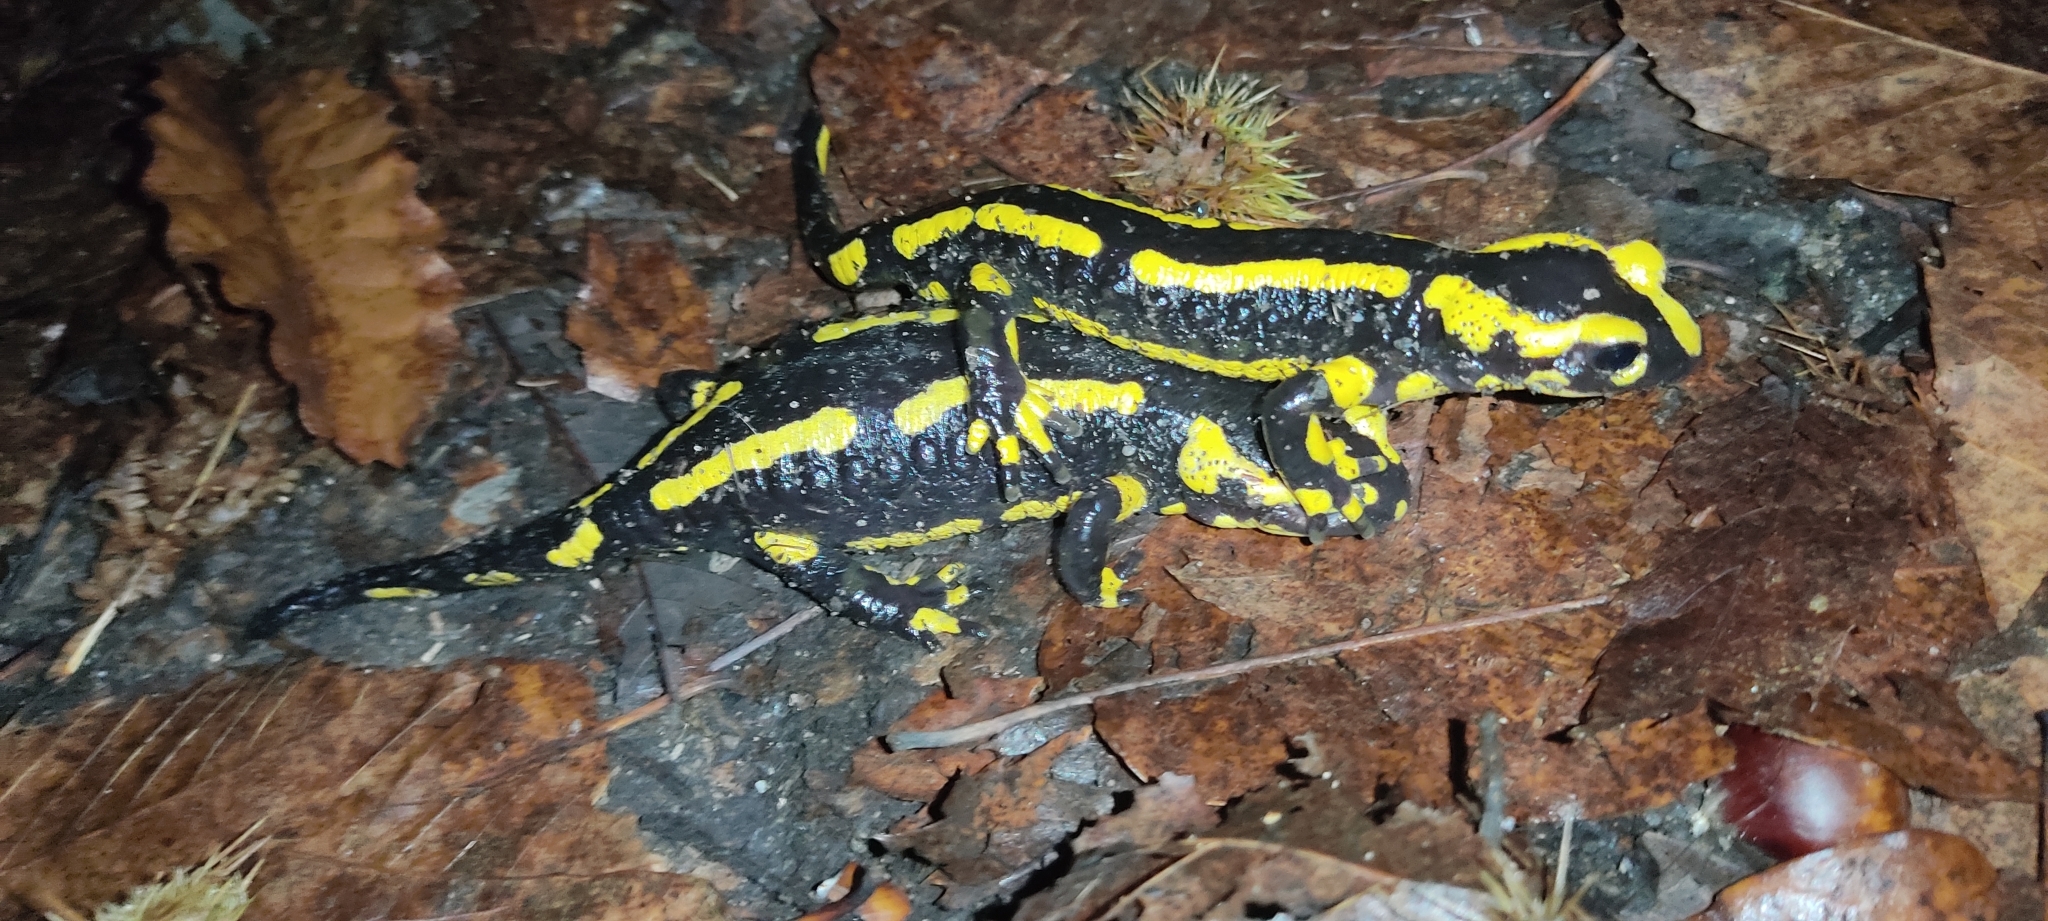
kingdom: Animalia
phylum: Chordata
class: Amphibia
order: Caudata
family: Salamandridae
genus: Salamandra
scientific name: Salamandra salamandra
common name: Fire salamander
